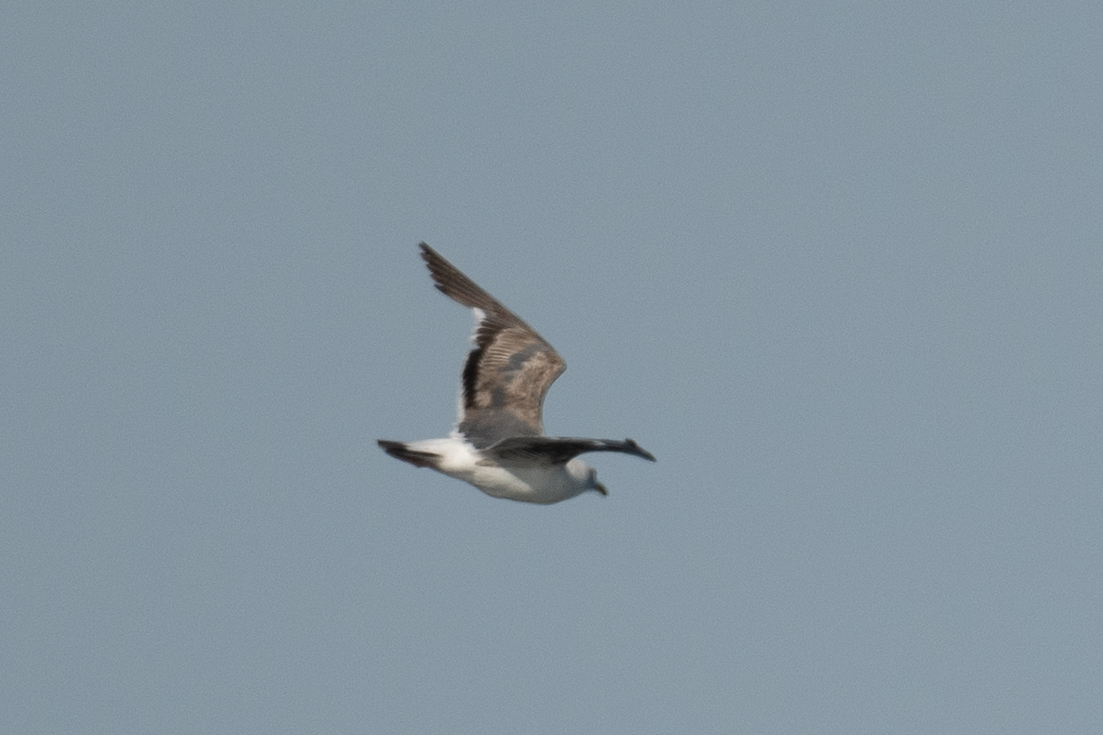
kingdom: Animalia
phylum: Chordata
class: Aves
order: Charadriiformes
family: Laridae
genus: Larus
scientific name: Larus occidentalis
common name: Western gull
